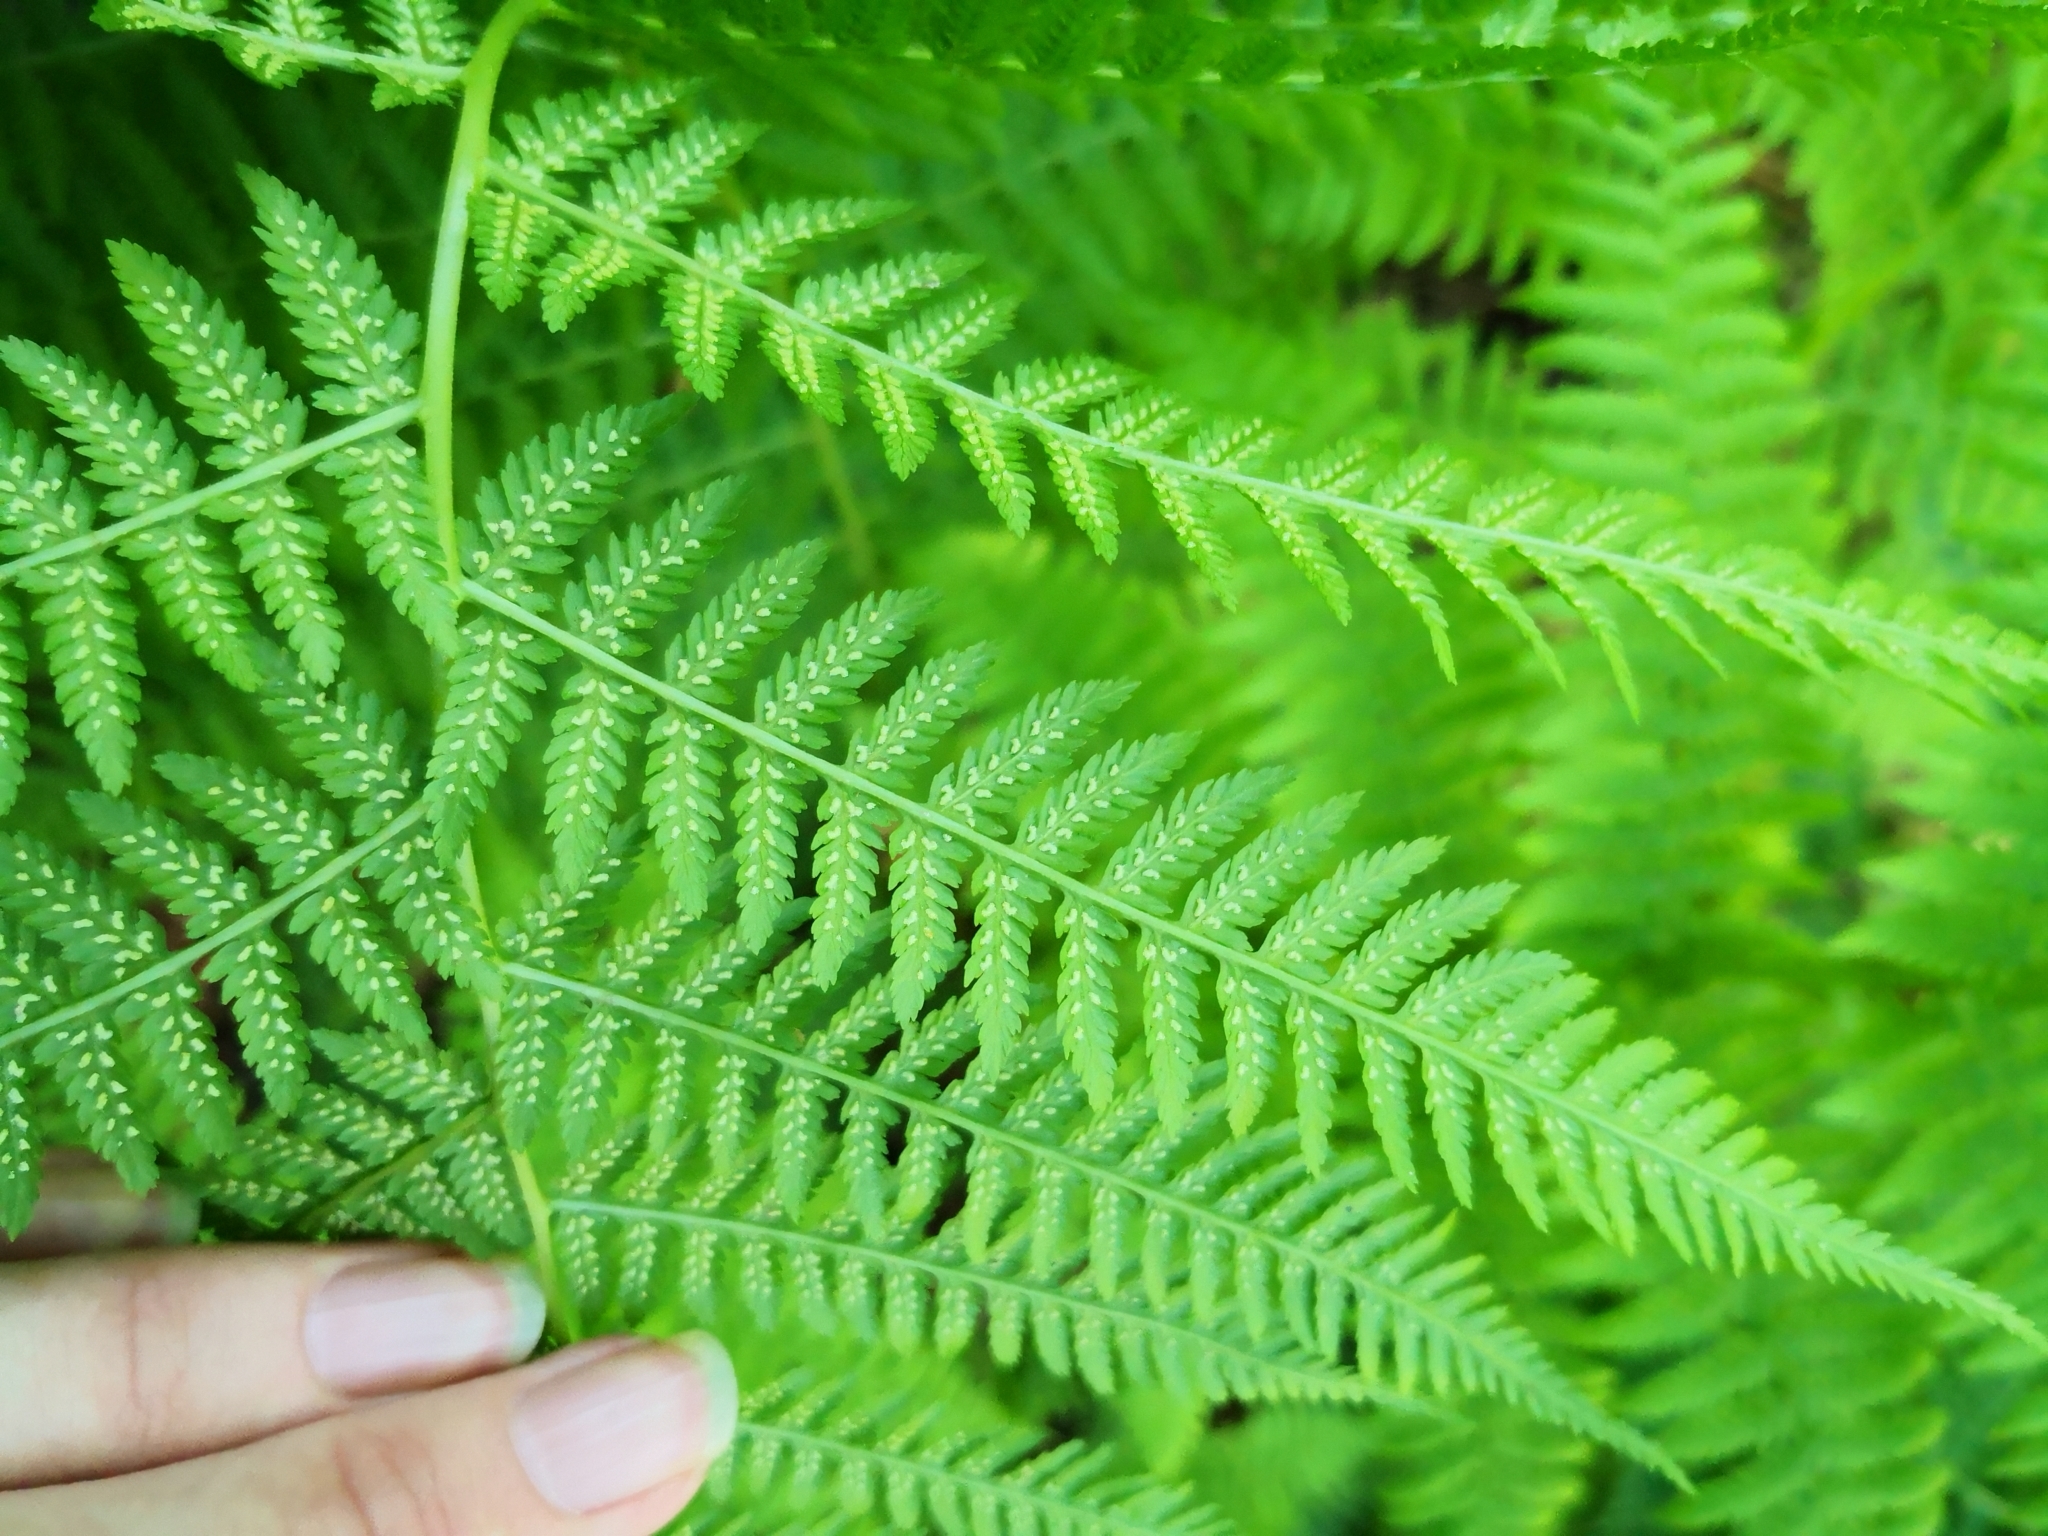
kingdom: Plantae
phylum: Tracheophyta
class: Polypodiopsida
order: Polypodiales
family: Athyriaceae
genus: Athyrium
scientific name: Athyrium filix-femina
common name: Lady fern
